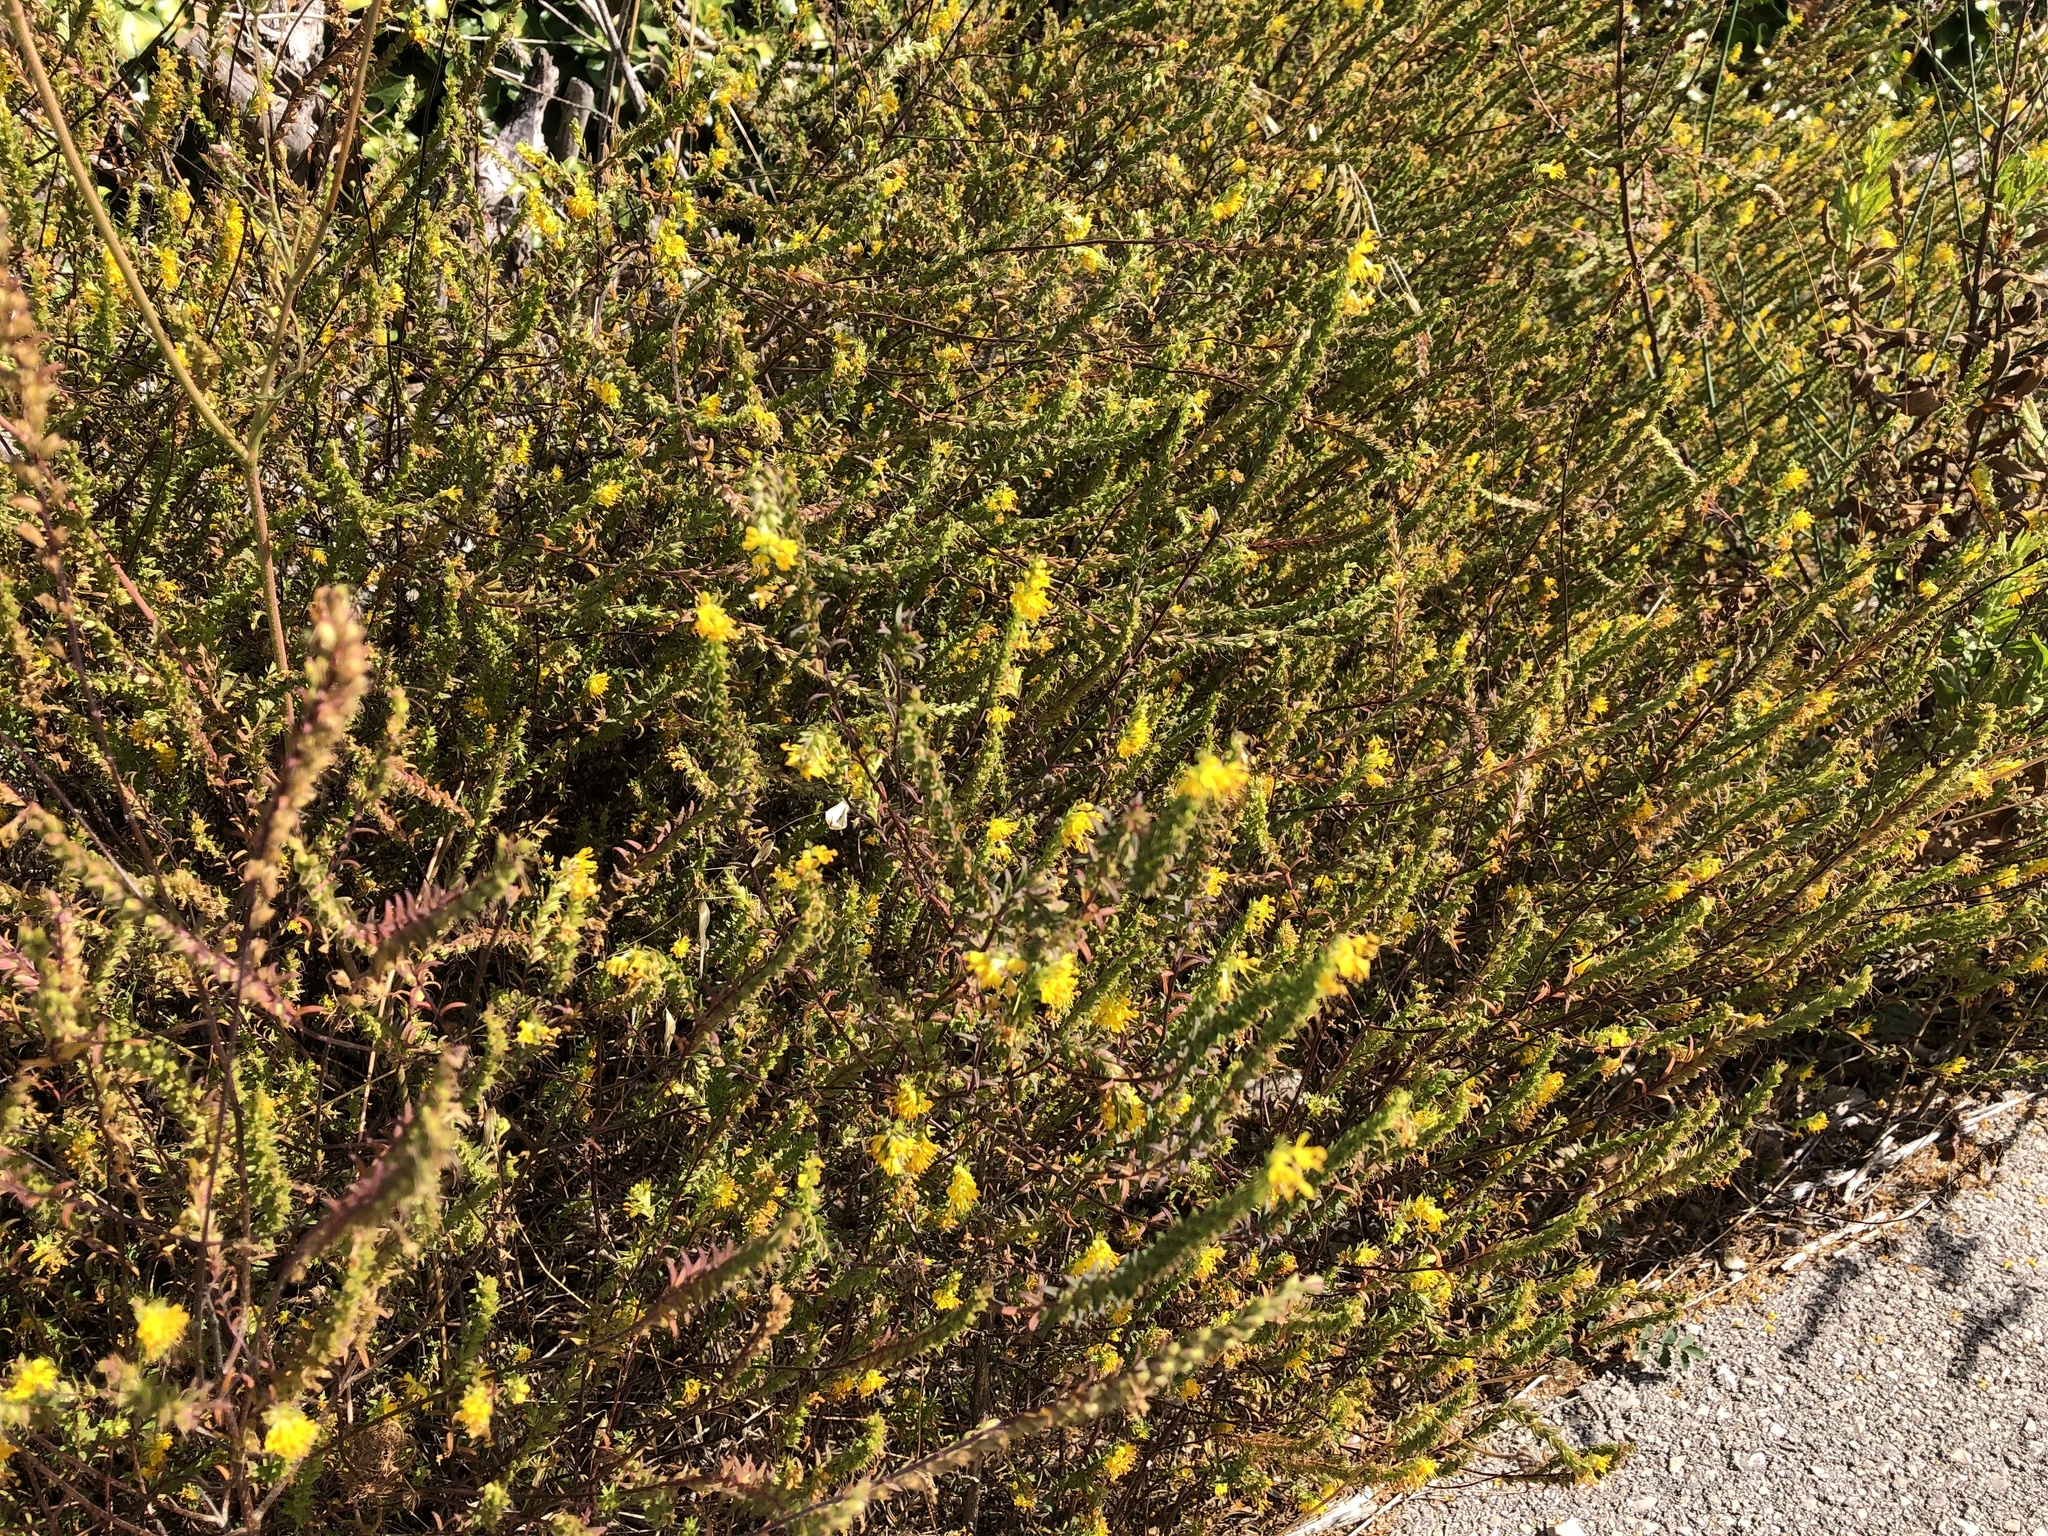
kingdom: Plantae
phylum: Tracheophyta
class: Magnoliopsida
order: Lamiales
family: Orobanchaceae
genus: Odontites
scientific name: Odontites luteus
